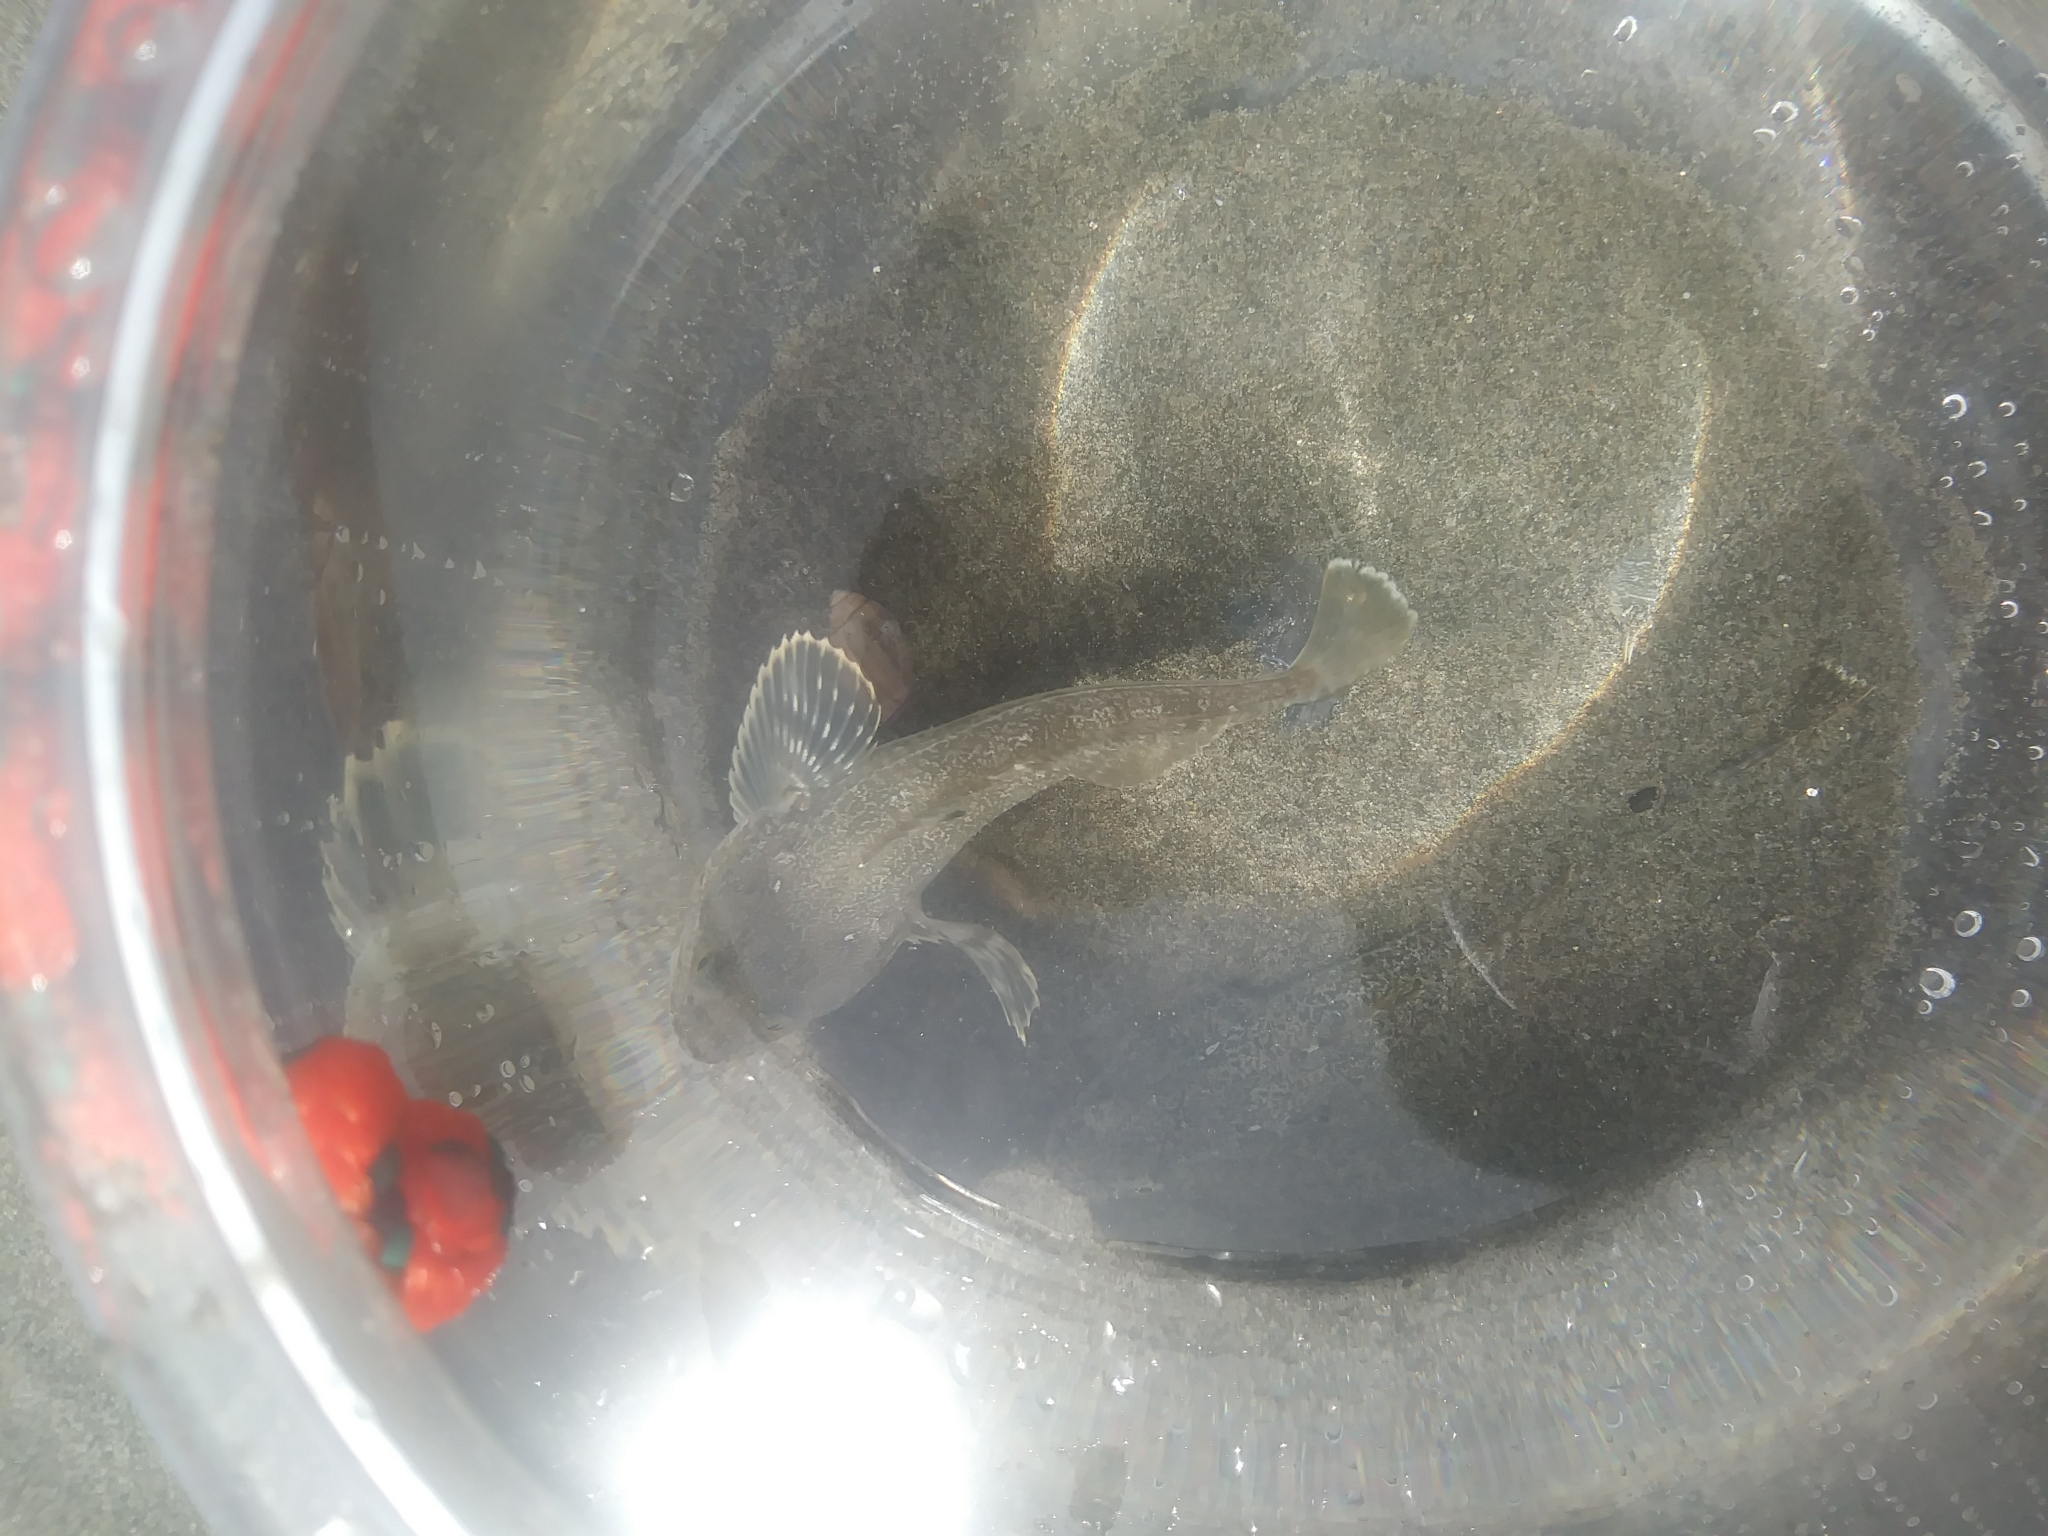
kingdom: Animalia
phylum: Chordata
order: Scorpaeniformes
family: Cottidae
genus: Leptocottus
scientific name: Leptocottus armatus
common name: Pacific staghorn sculpin
